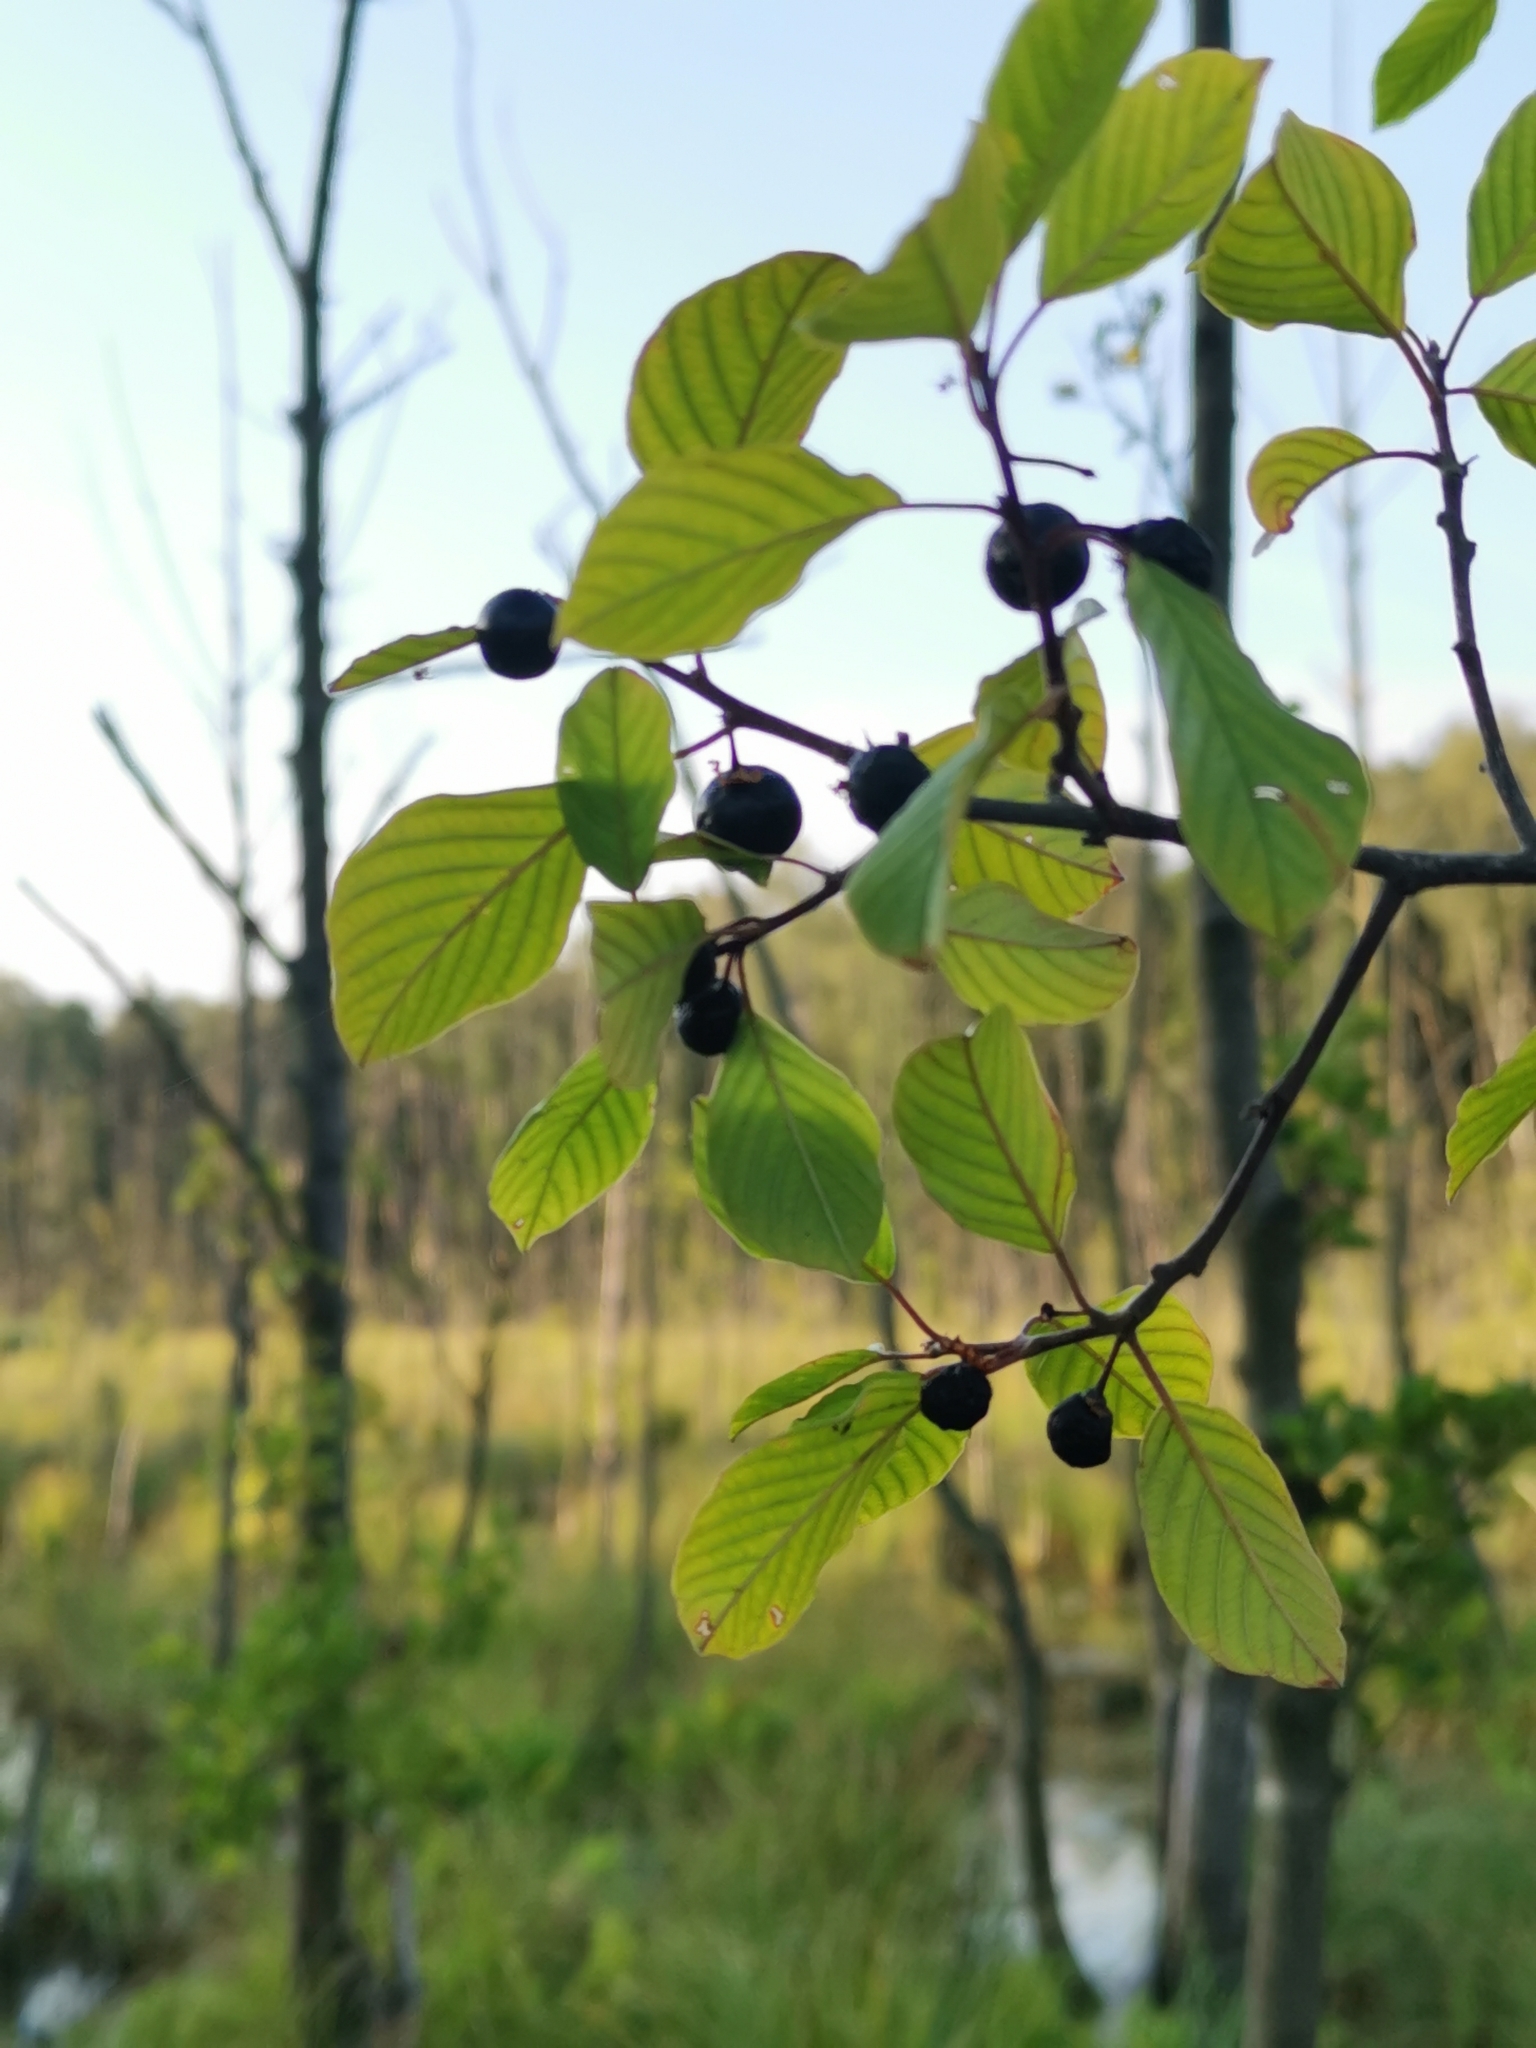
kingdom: Plantae
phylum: Tracheophyta
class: Magnoliopsida
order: Rosales
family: Rhamnaceae
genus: Frangula
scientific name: Frangula alnus
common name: Alder buckthorn
